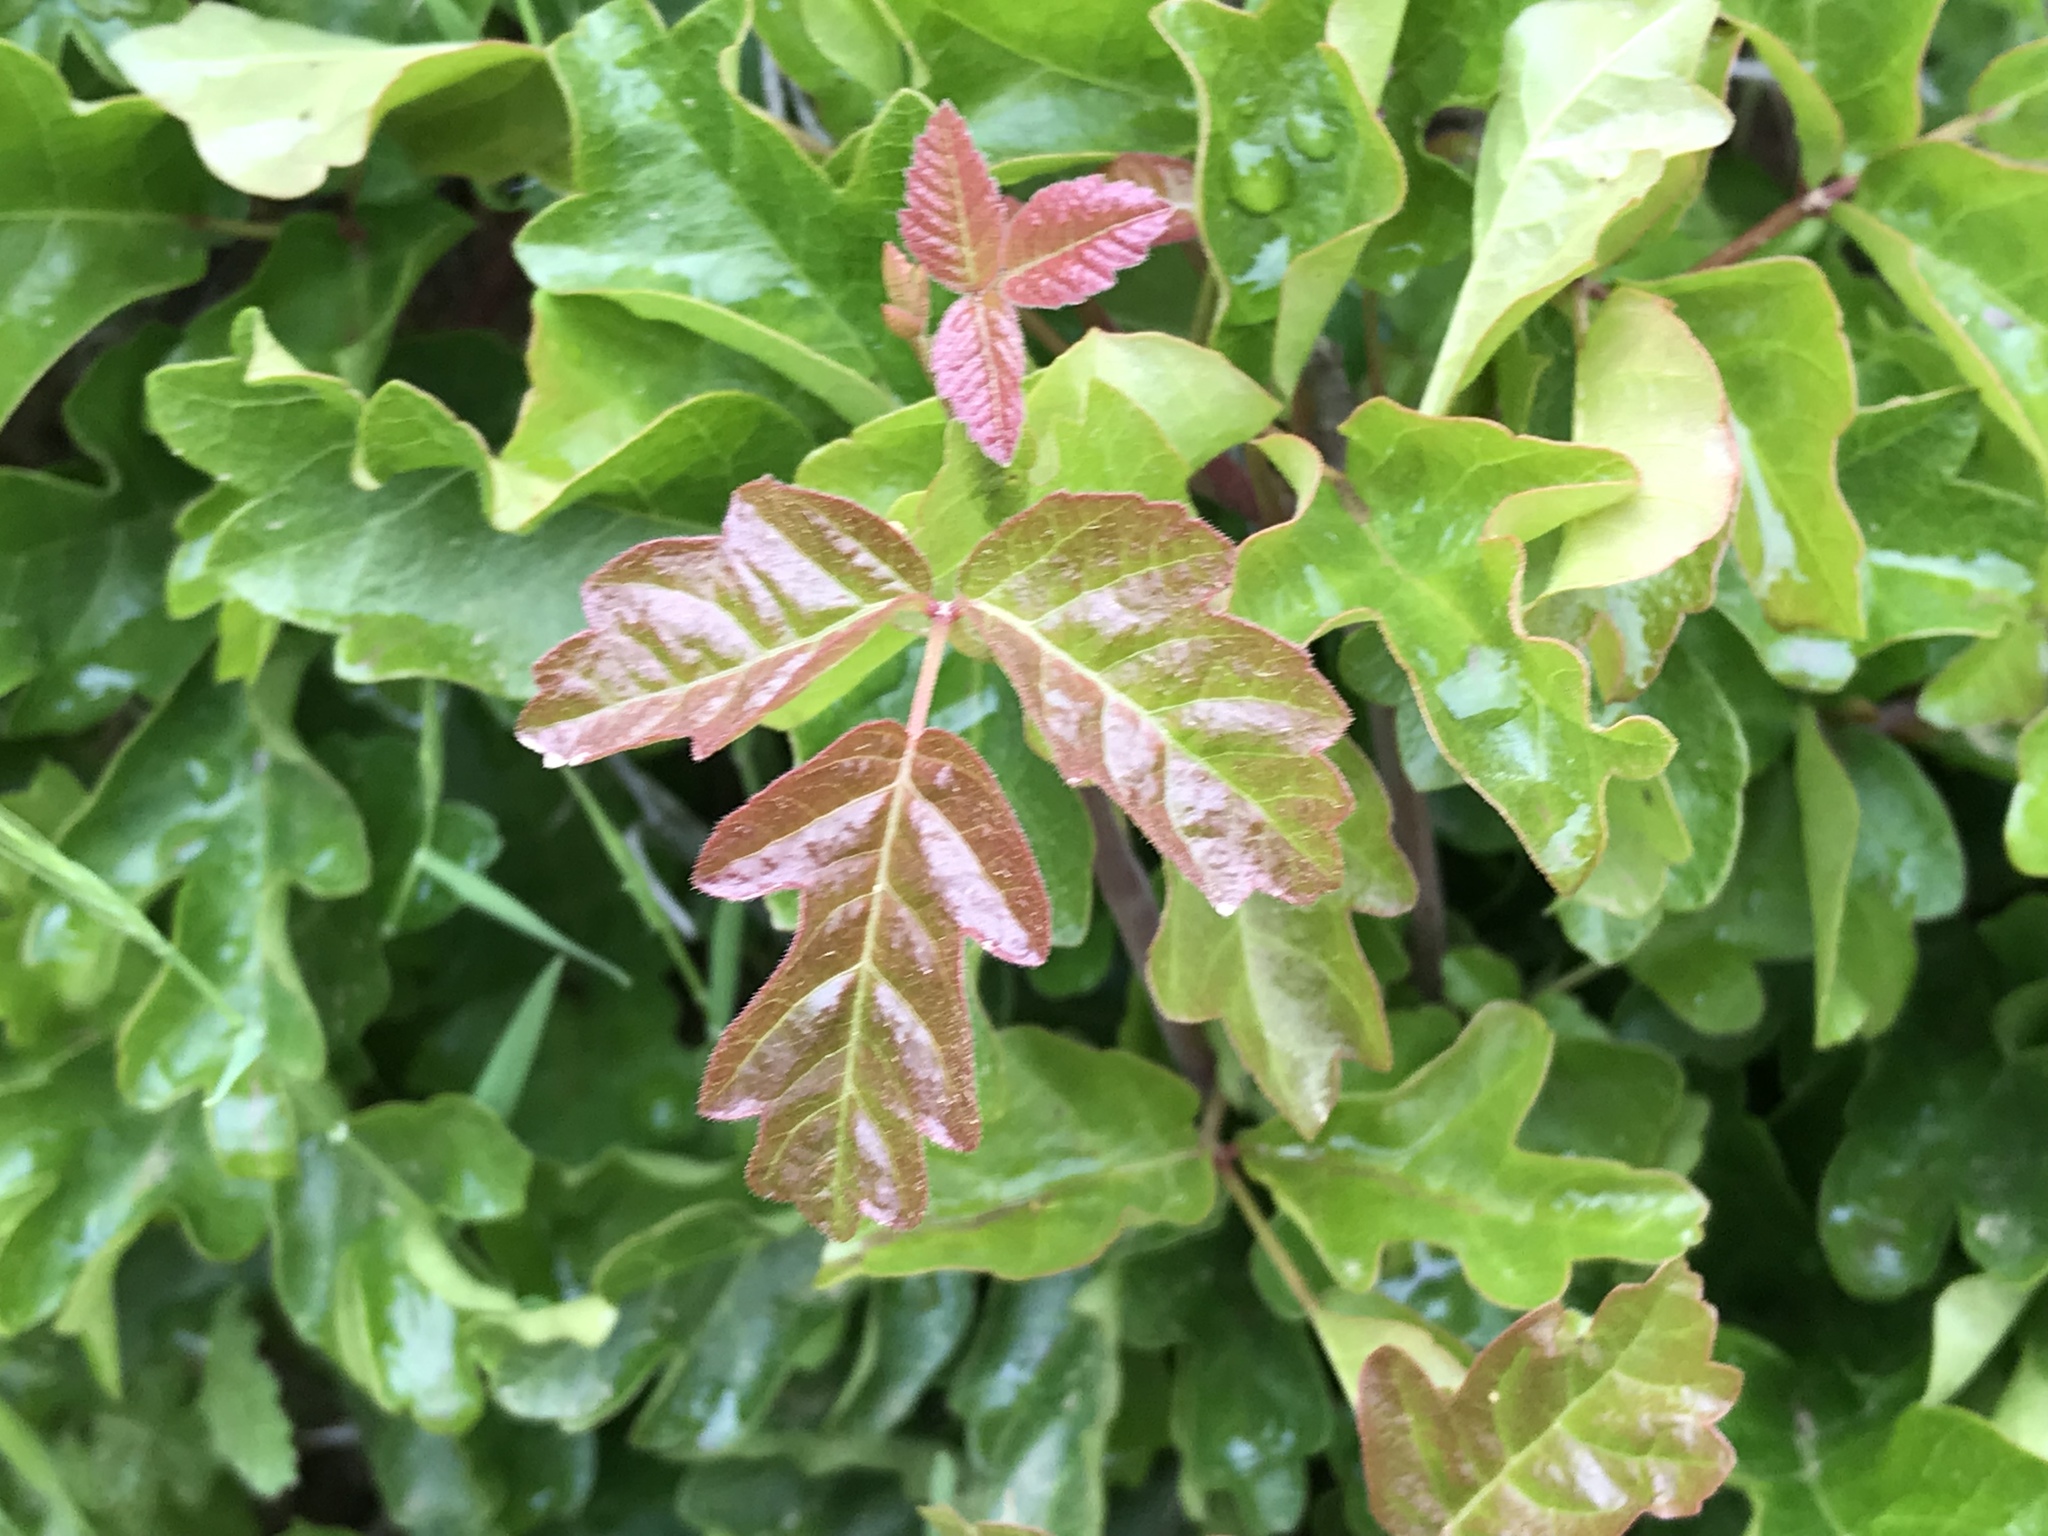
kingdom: Plantae
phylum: Tracheophyta
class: Magnoliopsida
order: Sapindales
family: Anacardiaceae
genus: Toxicodendron
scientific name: Toxicodendron diversilobum
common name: Pacific poison-oak
